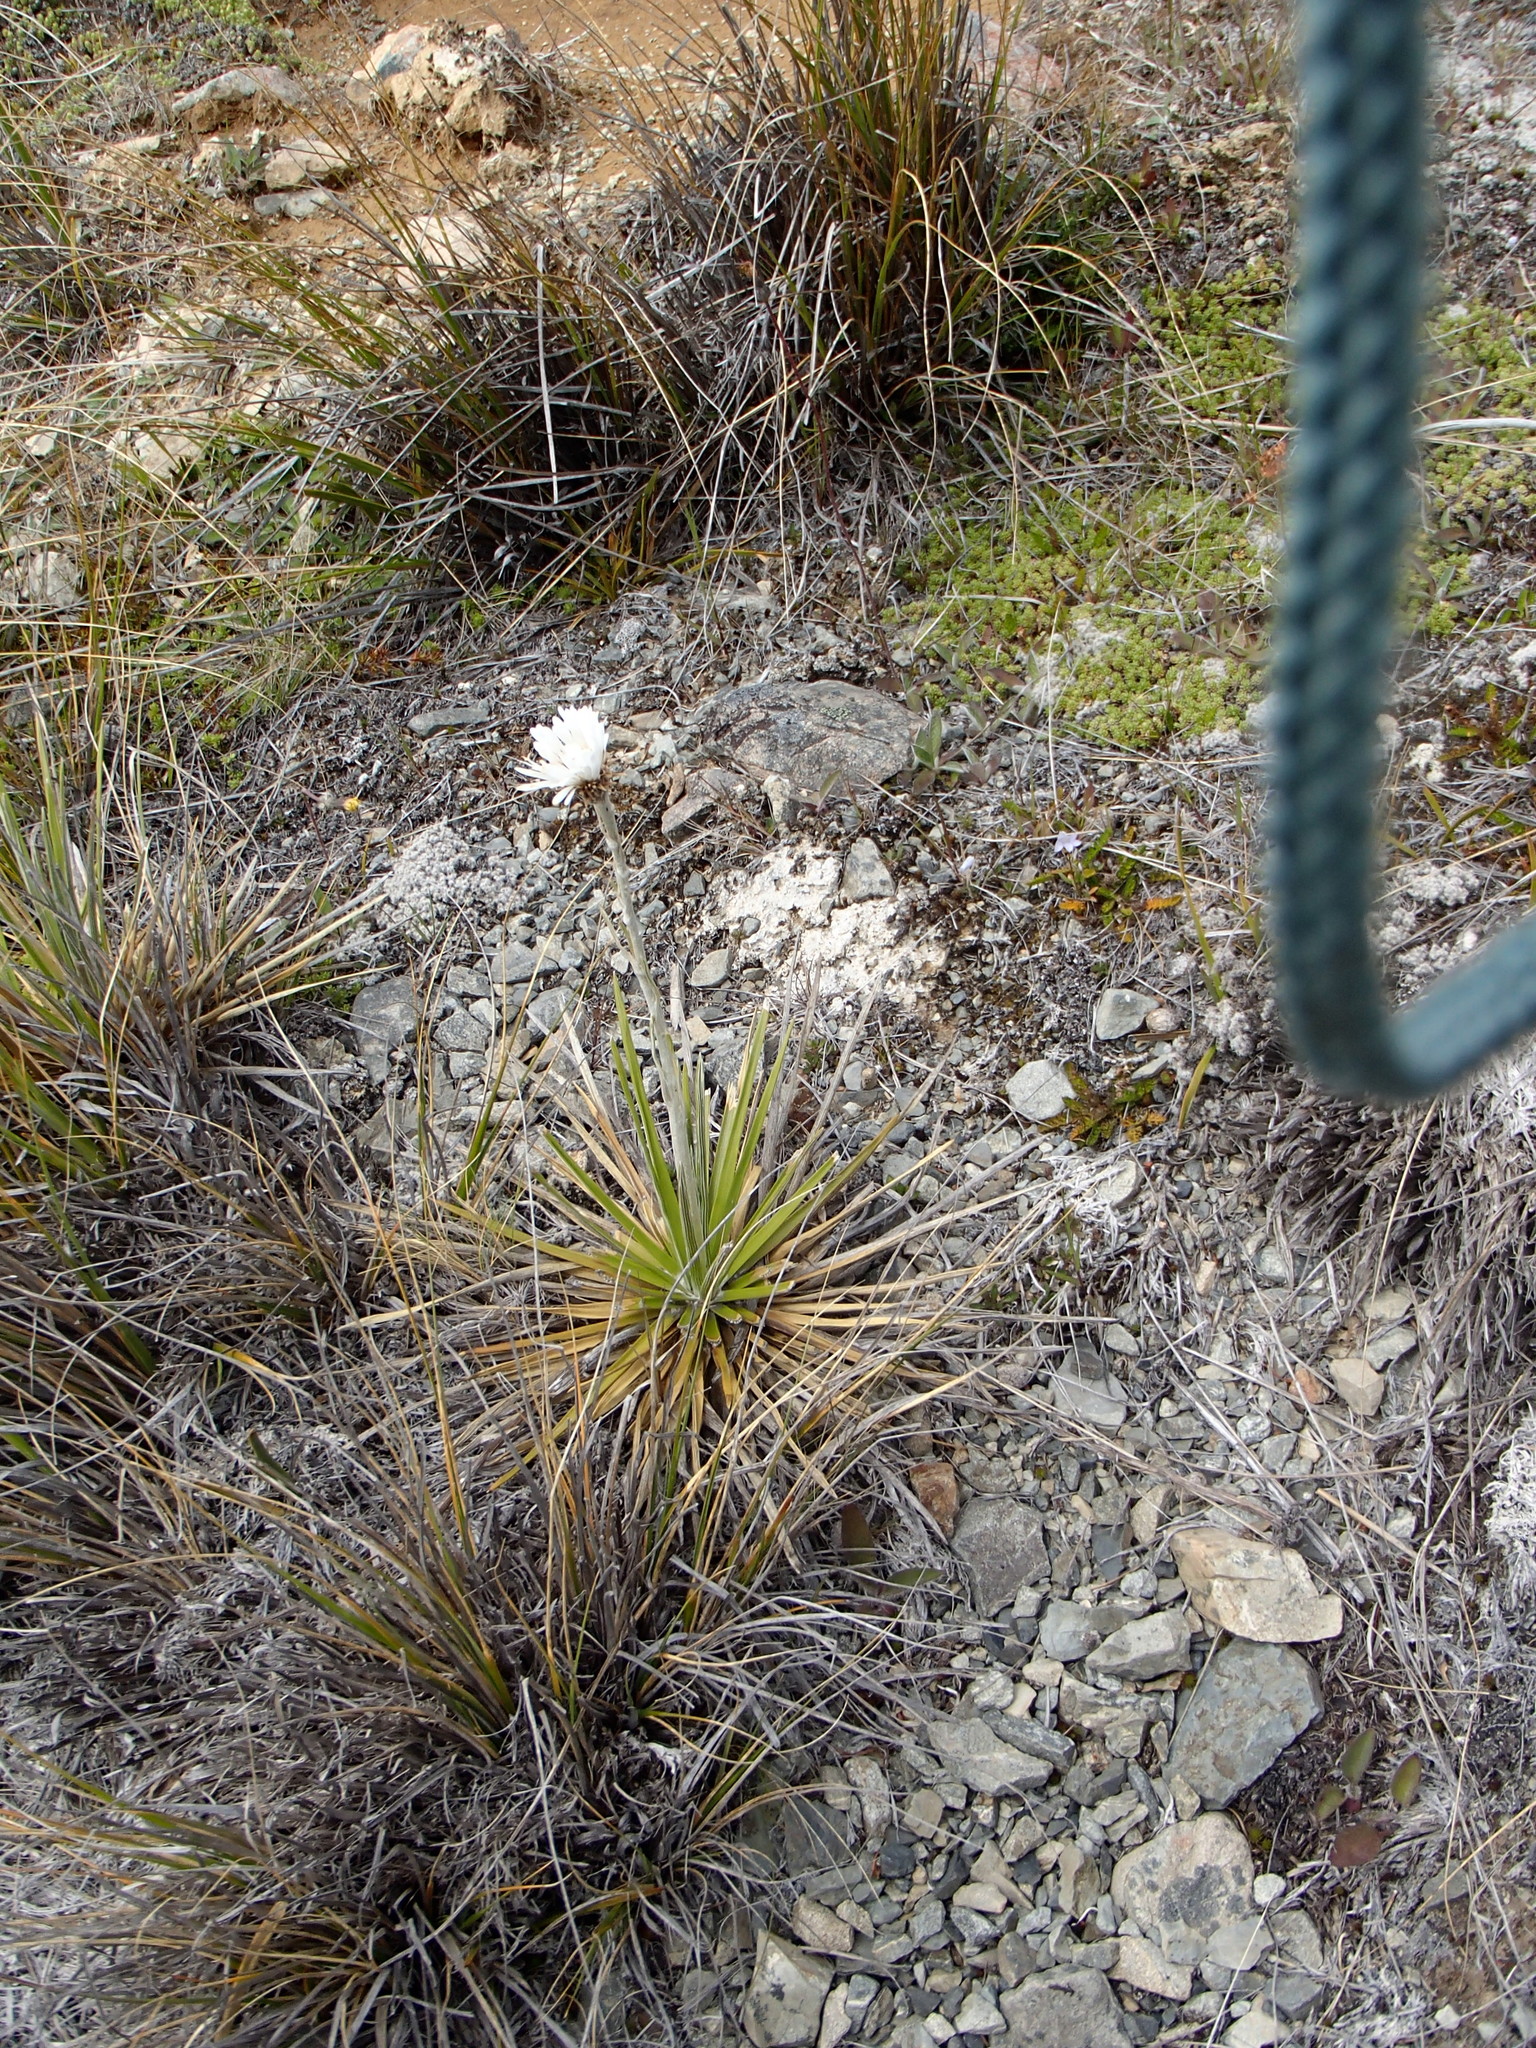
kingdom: Plantae
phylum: Tracheophyta
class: Magnoliopsida
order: Asterales
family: Asteraceae
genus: Celmisia
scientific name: Celmisia lyallii
